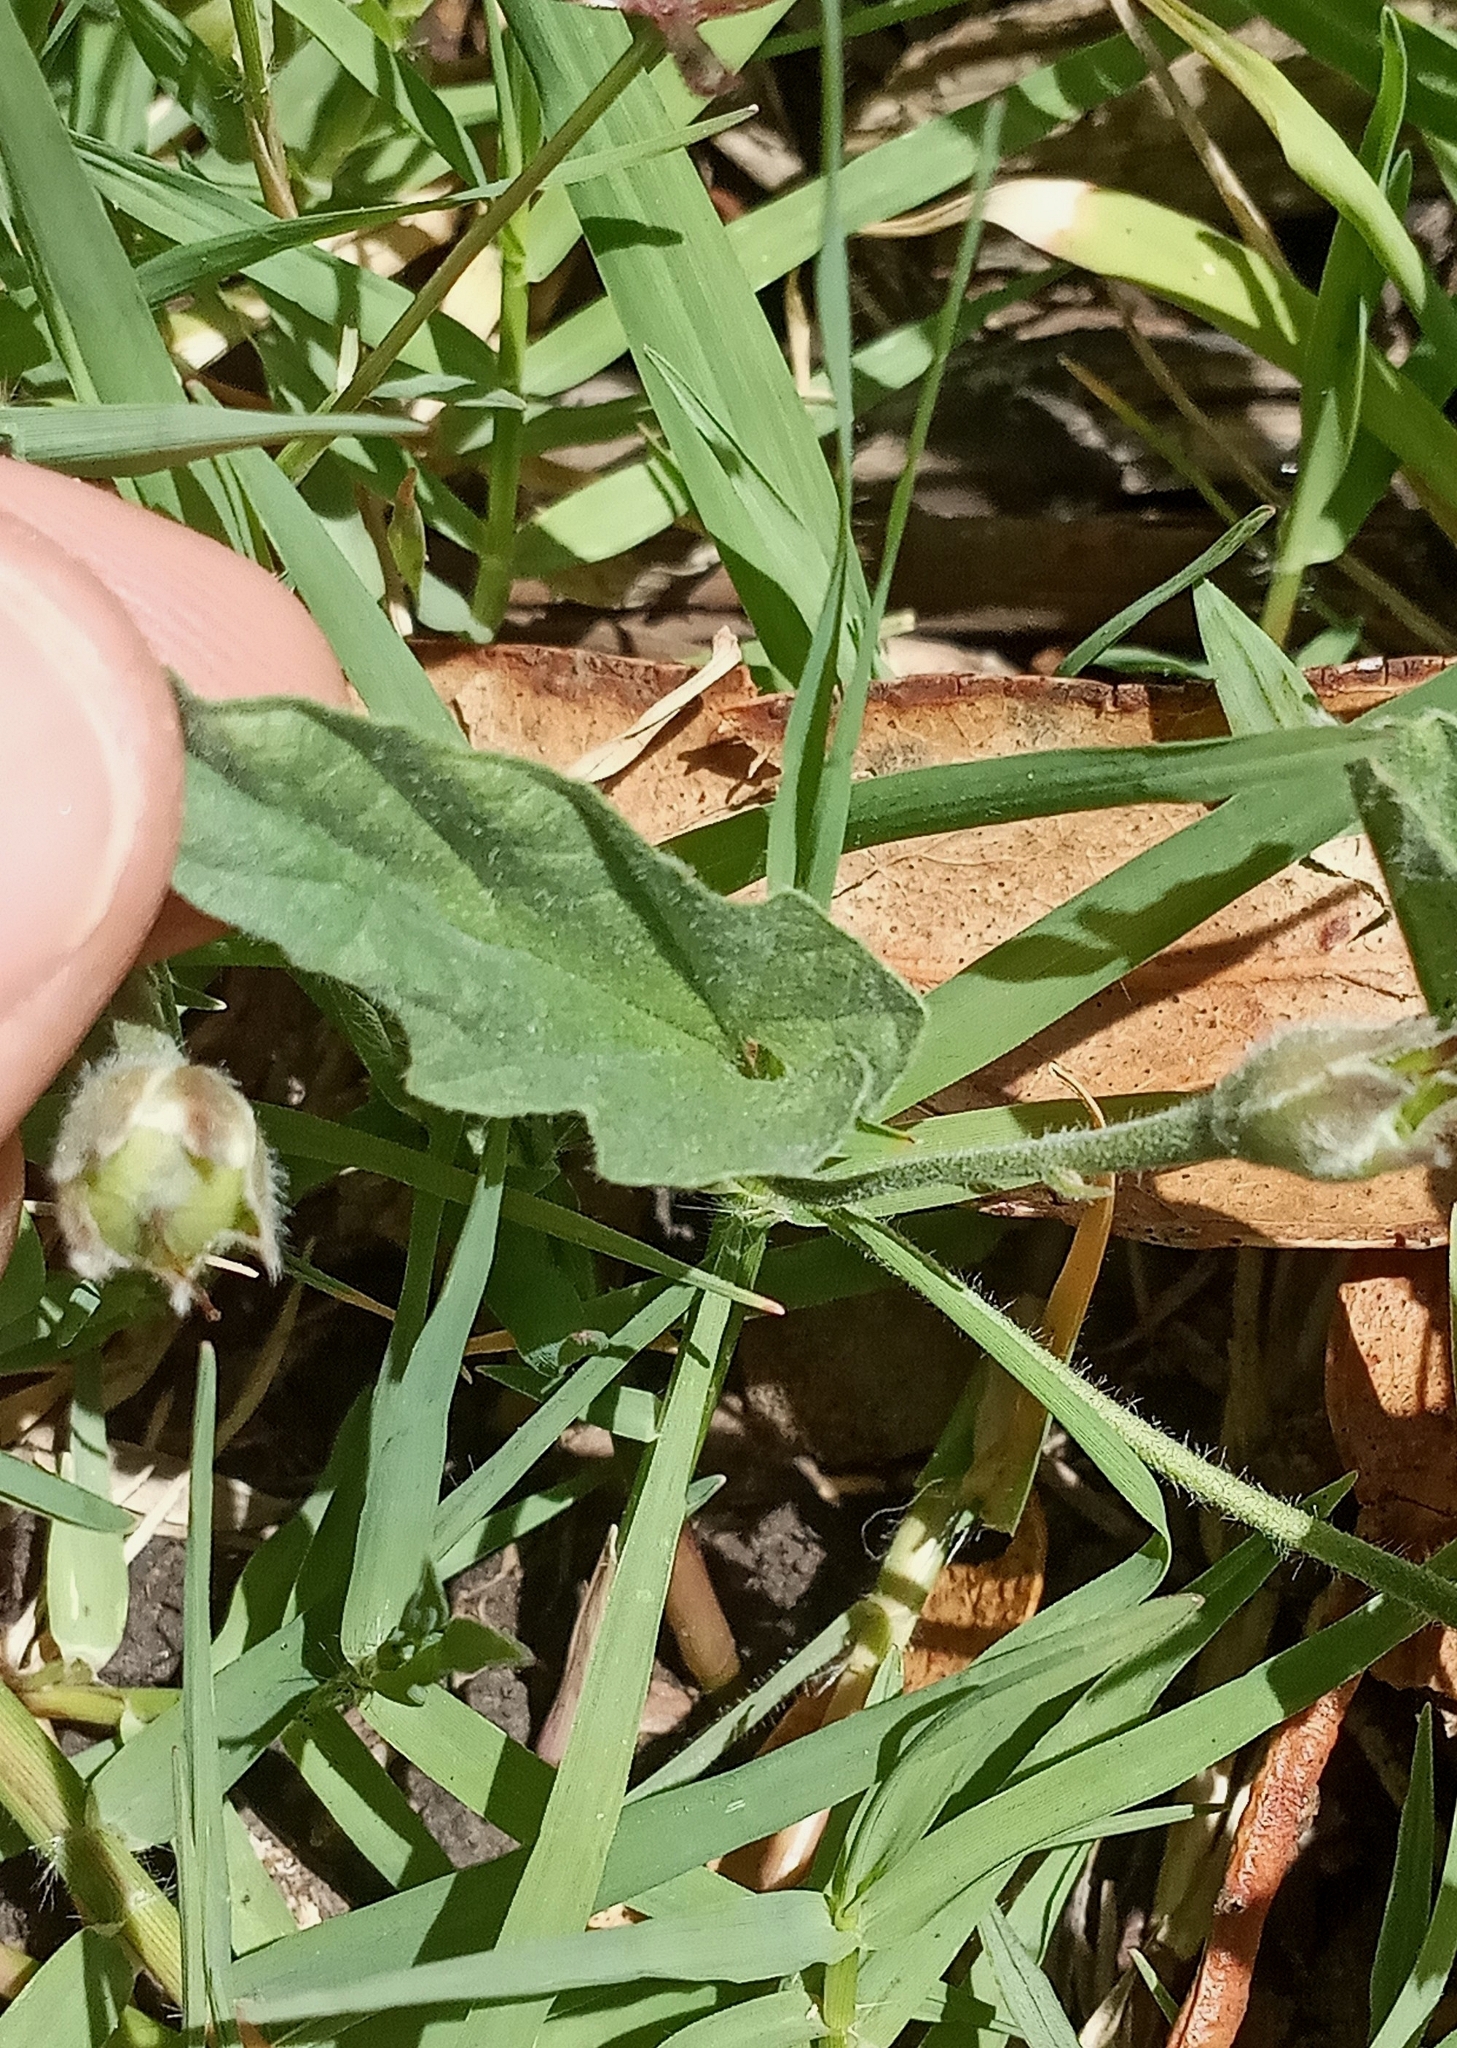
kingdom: Plantae
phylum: Tracheophyta
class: Magnoliopsida
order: Solanales
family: Convolvulaceae
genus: Convolvulus
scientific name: Convolvulus hermanniae
